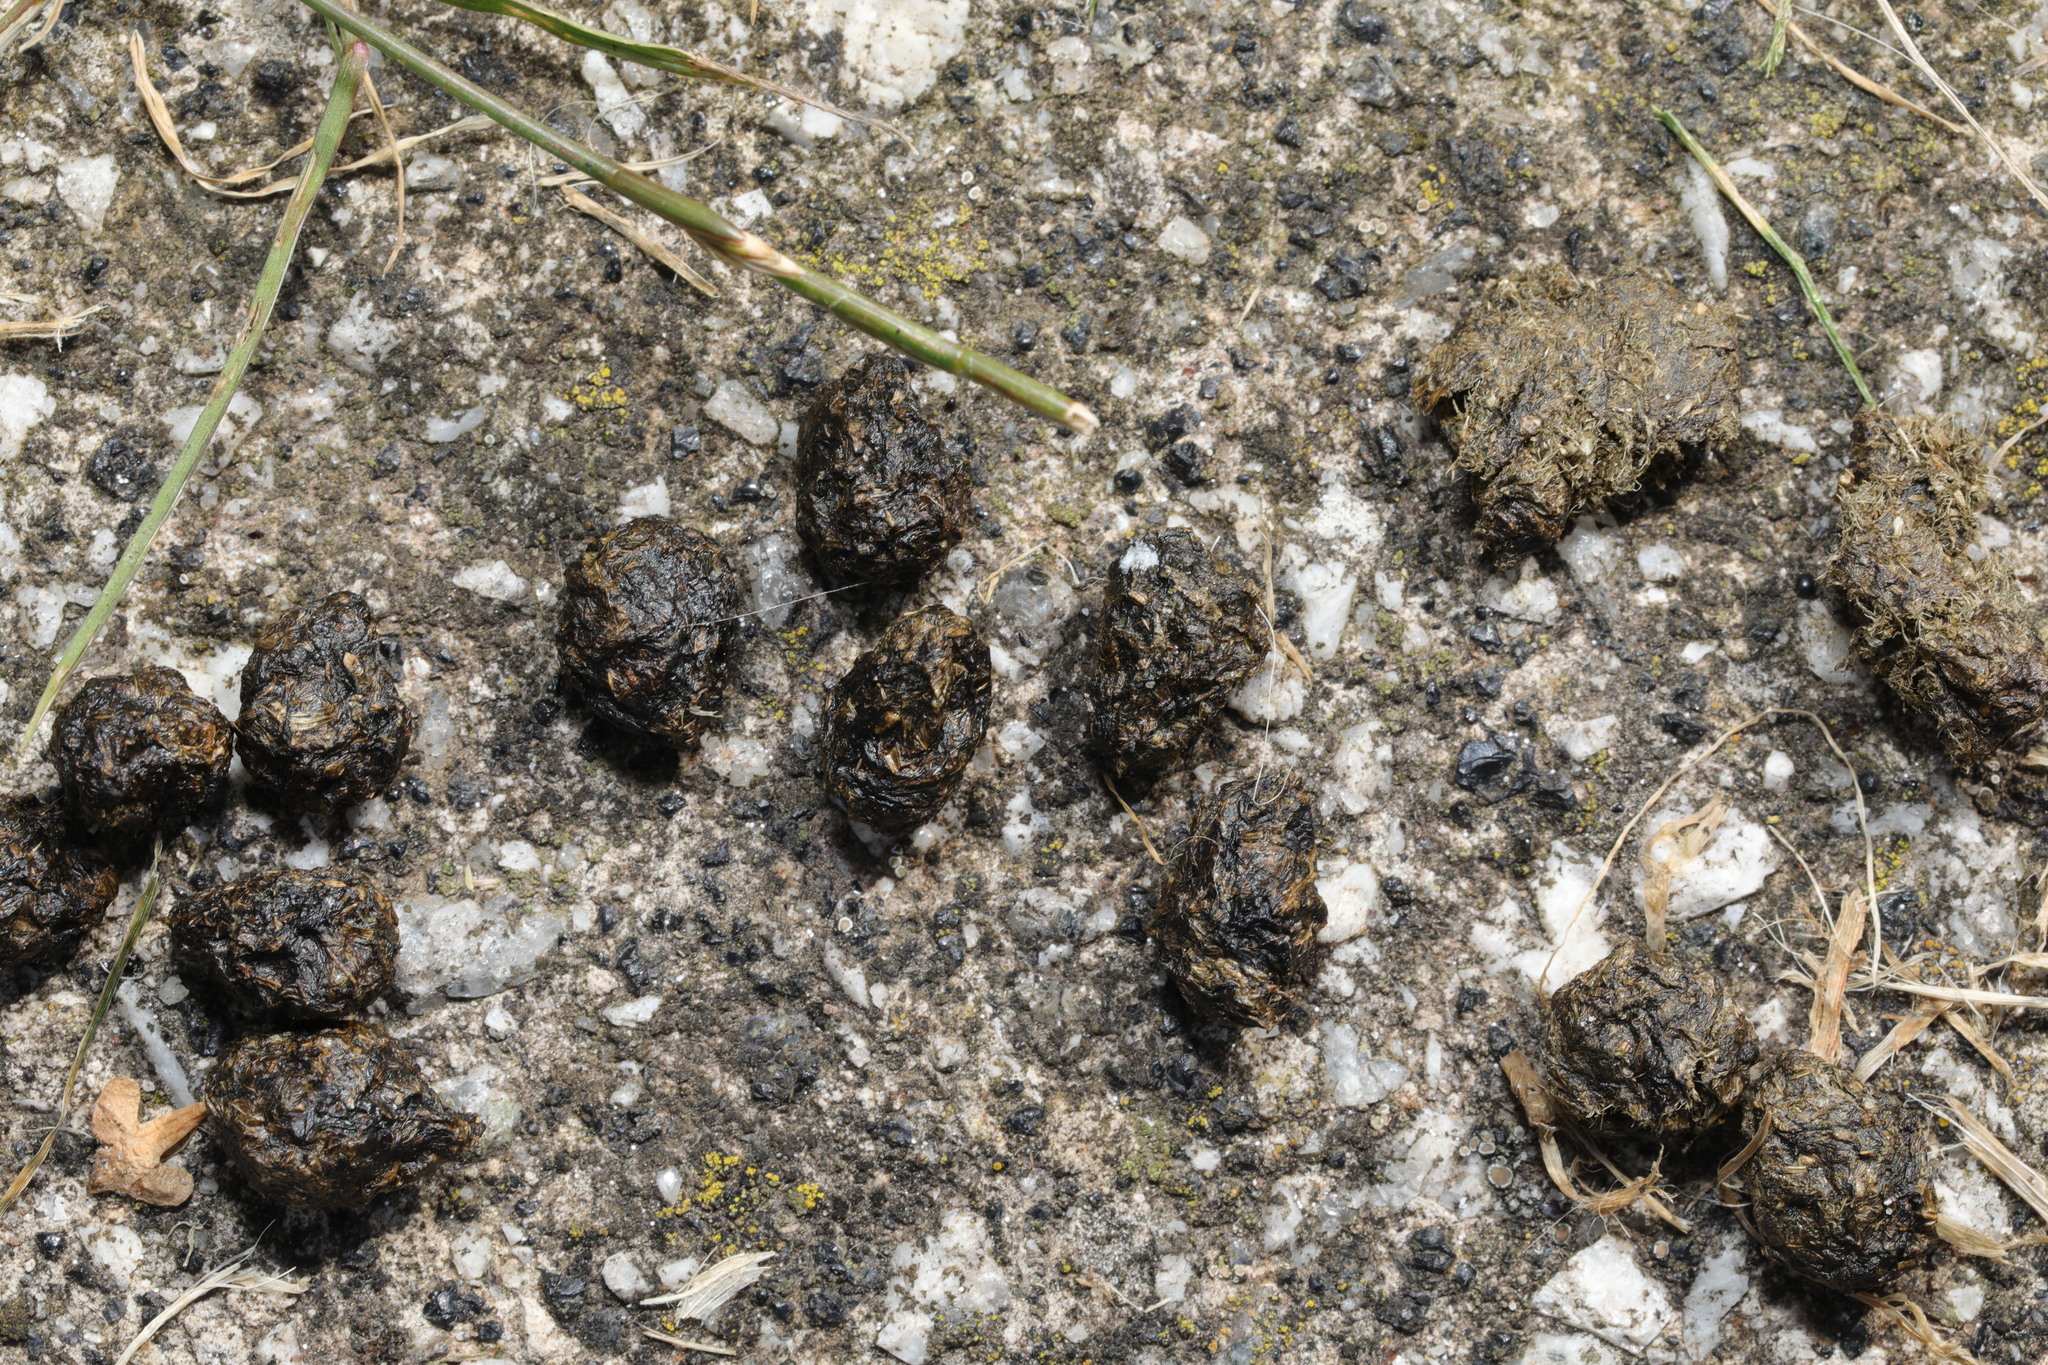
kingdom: Animalia
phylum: Chordata
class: Mammalia
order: Lagomorpha
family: Leporidae
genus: Oryctolagus
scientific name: Oryctolagus cuniculus
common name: European rabbit
